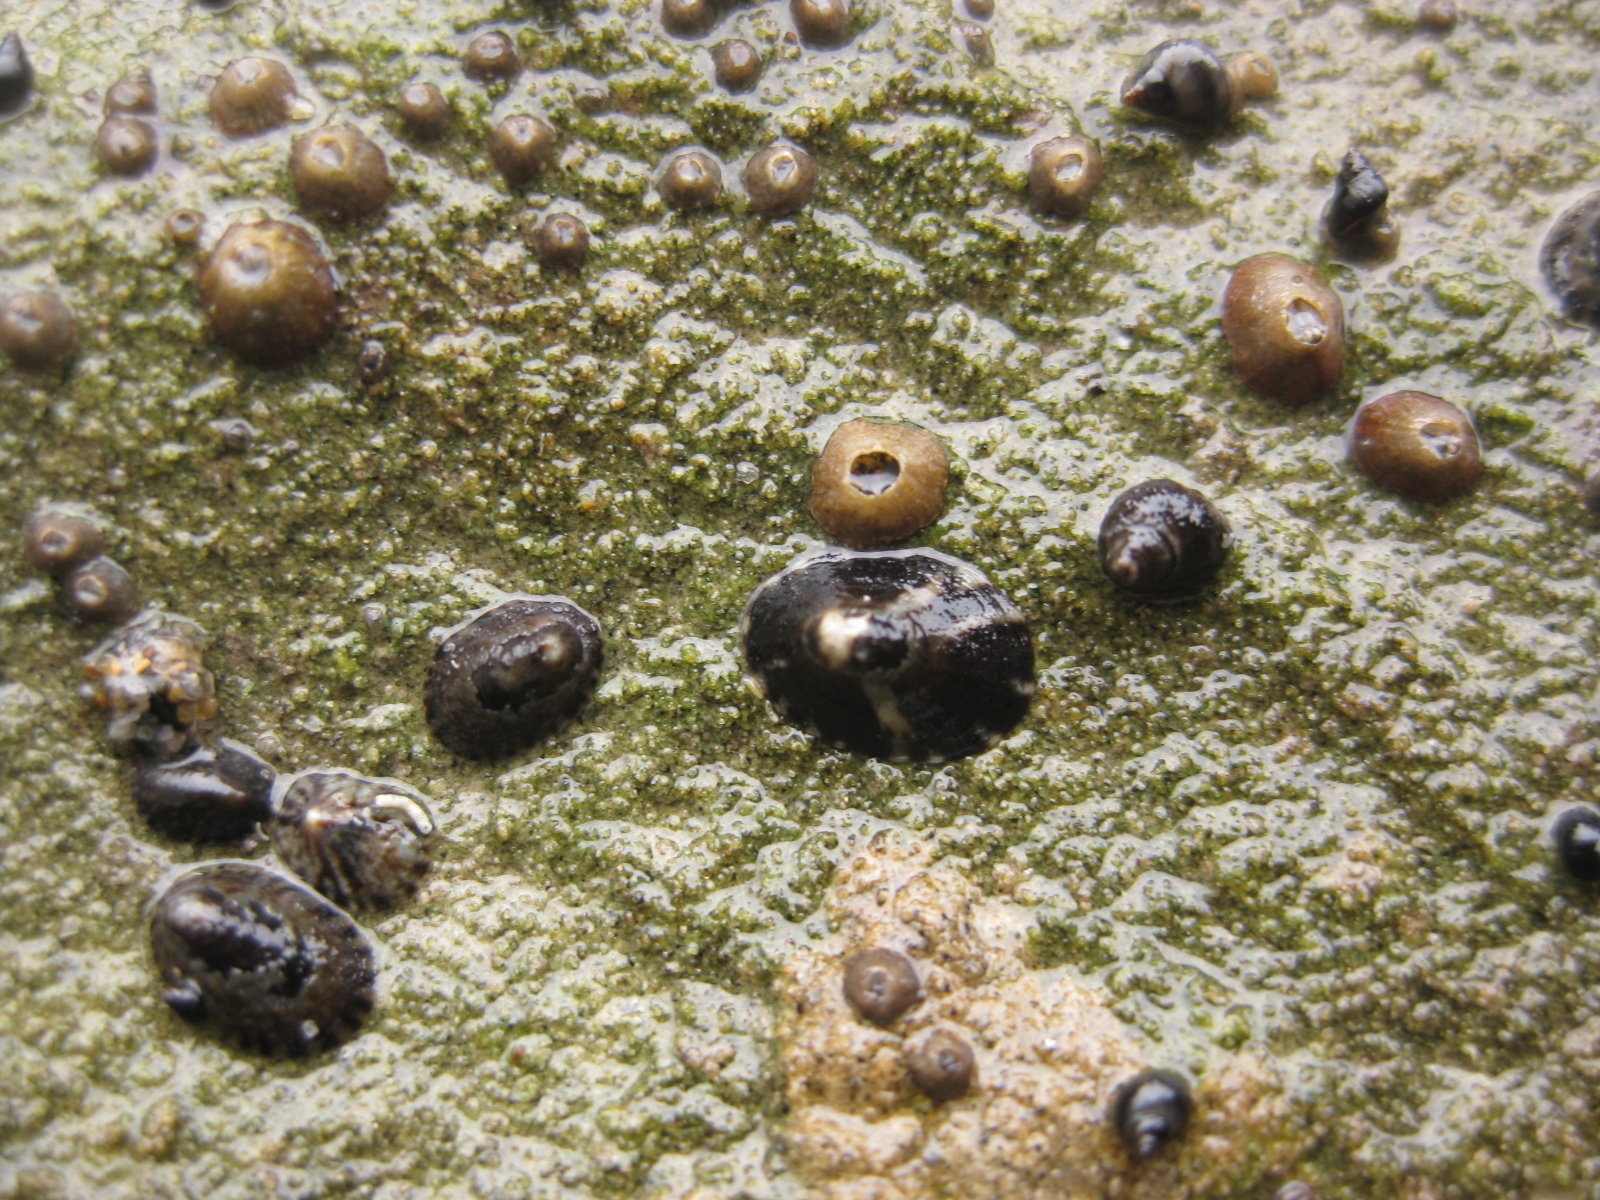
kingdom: Animalia
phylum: Mollusca
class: Gastropoda
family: Lottiidae
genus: Notoacmea
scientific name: Notoacmea parviconoidea
